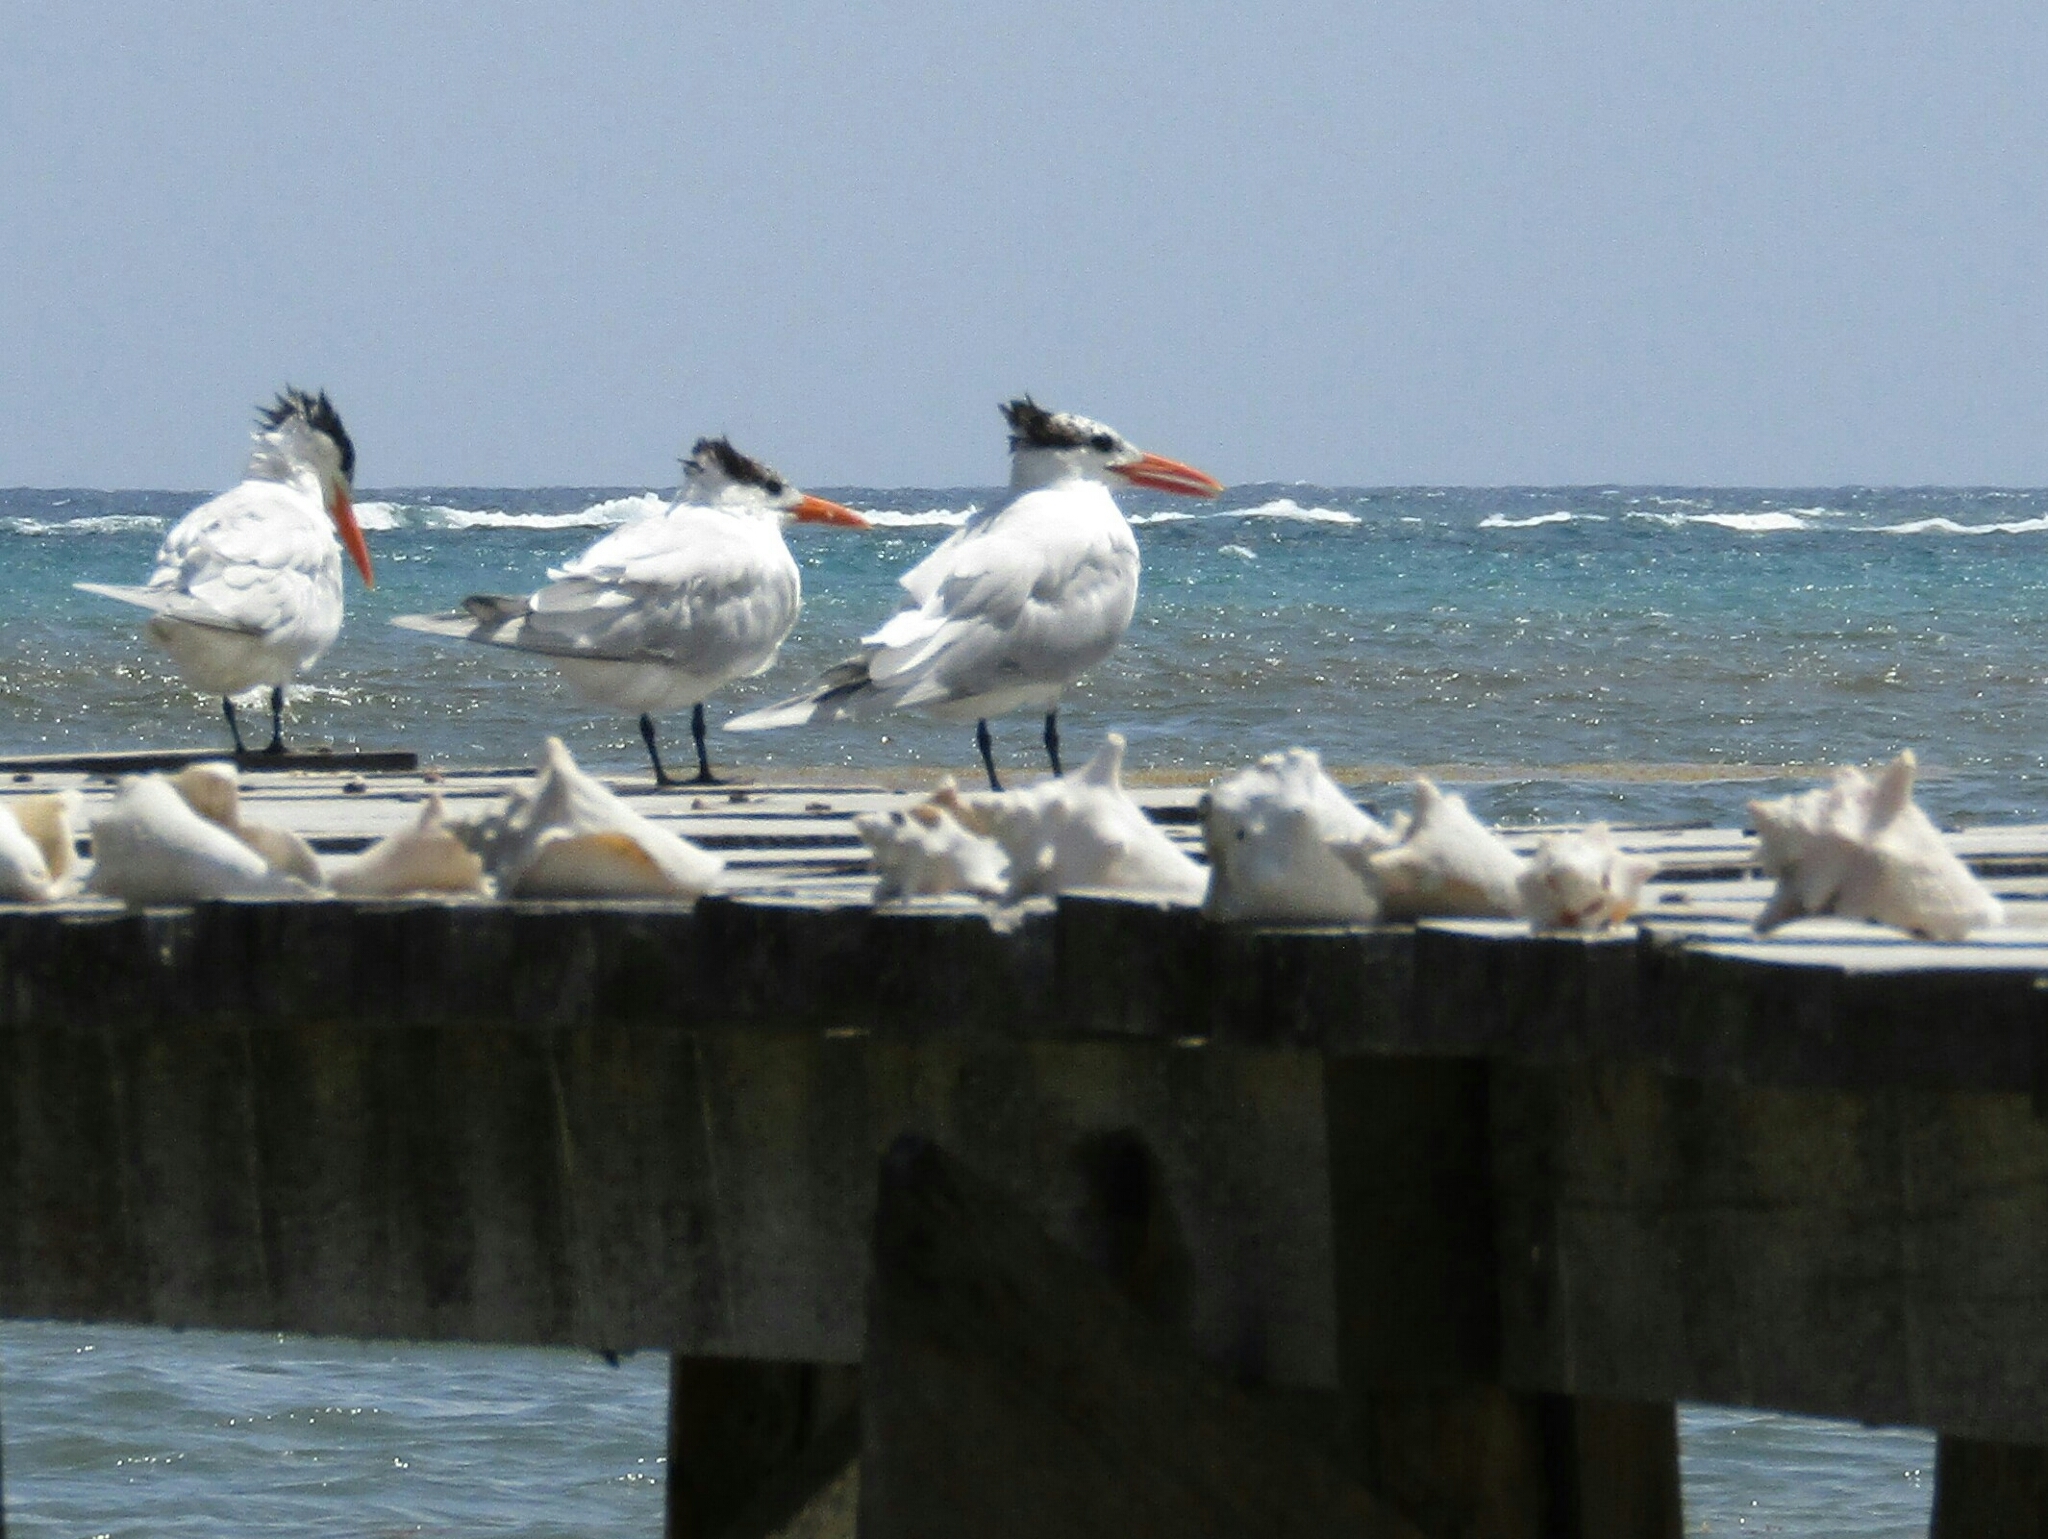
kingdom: Animalia
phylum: Chordata
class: Aves
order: Charadriiformes
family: Laridae
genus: Thalasseus
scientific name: Thalasseus maximus
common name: Royal tern
